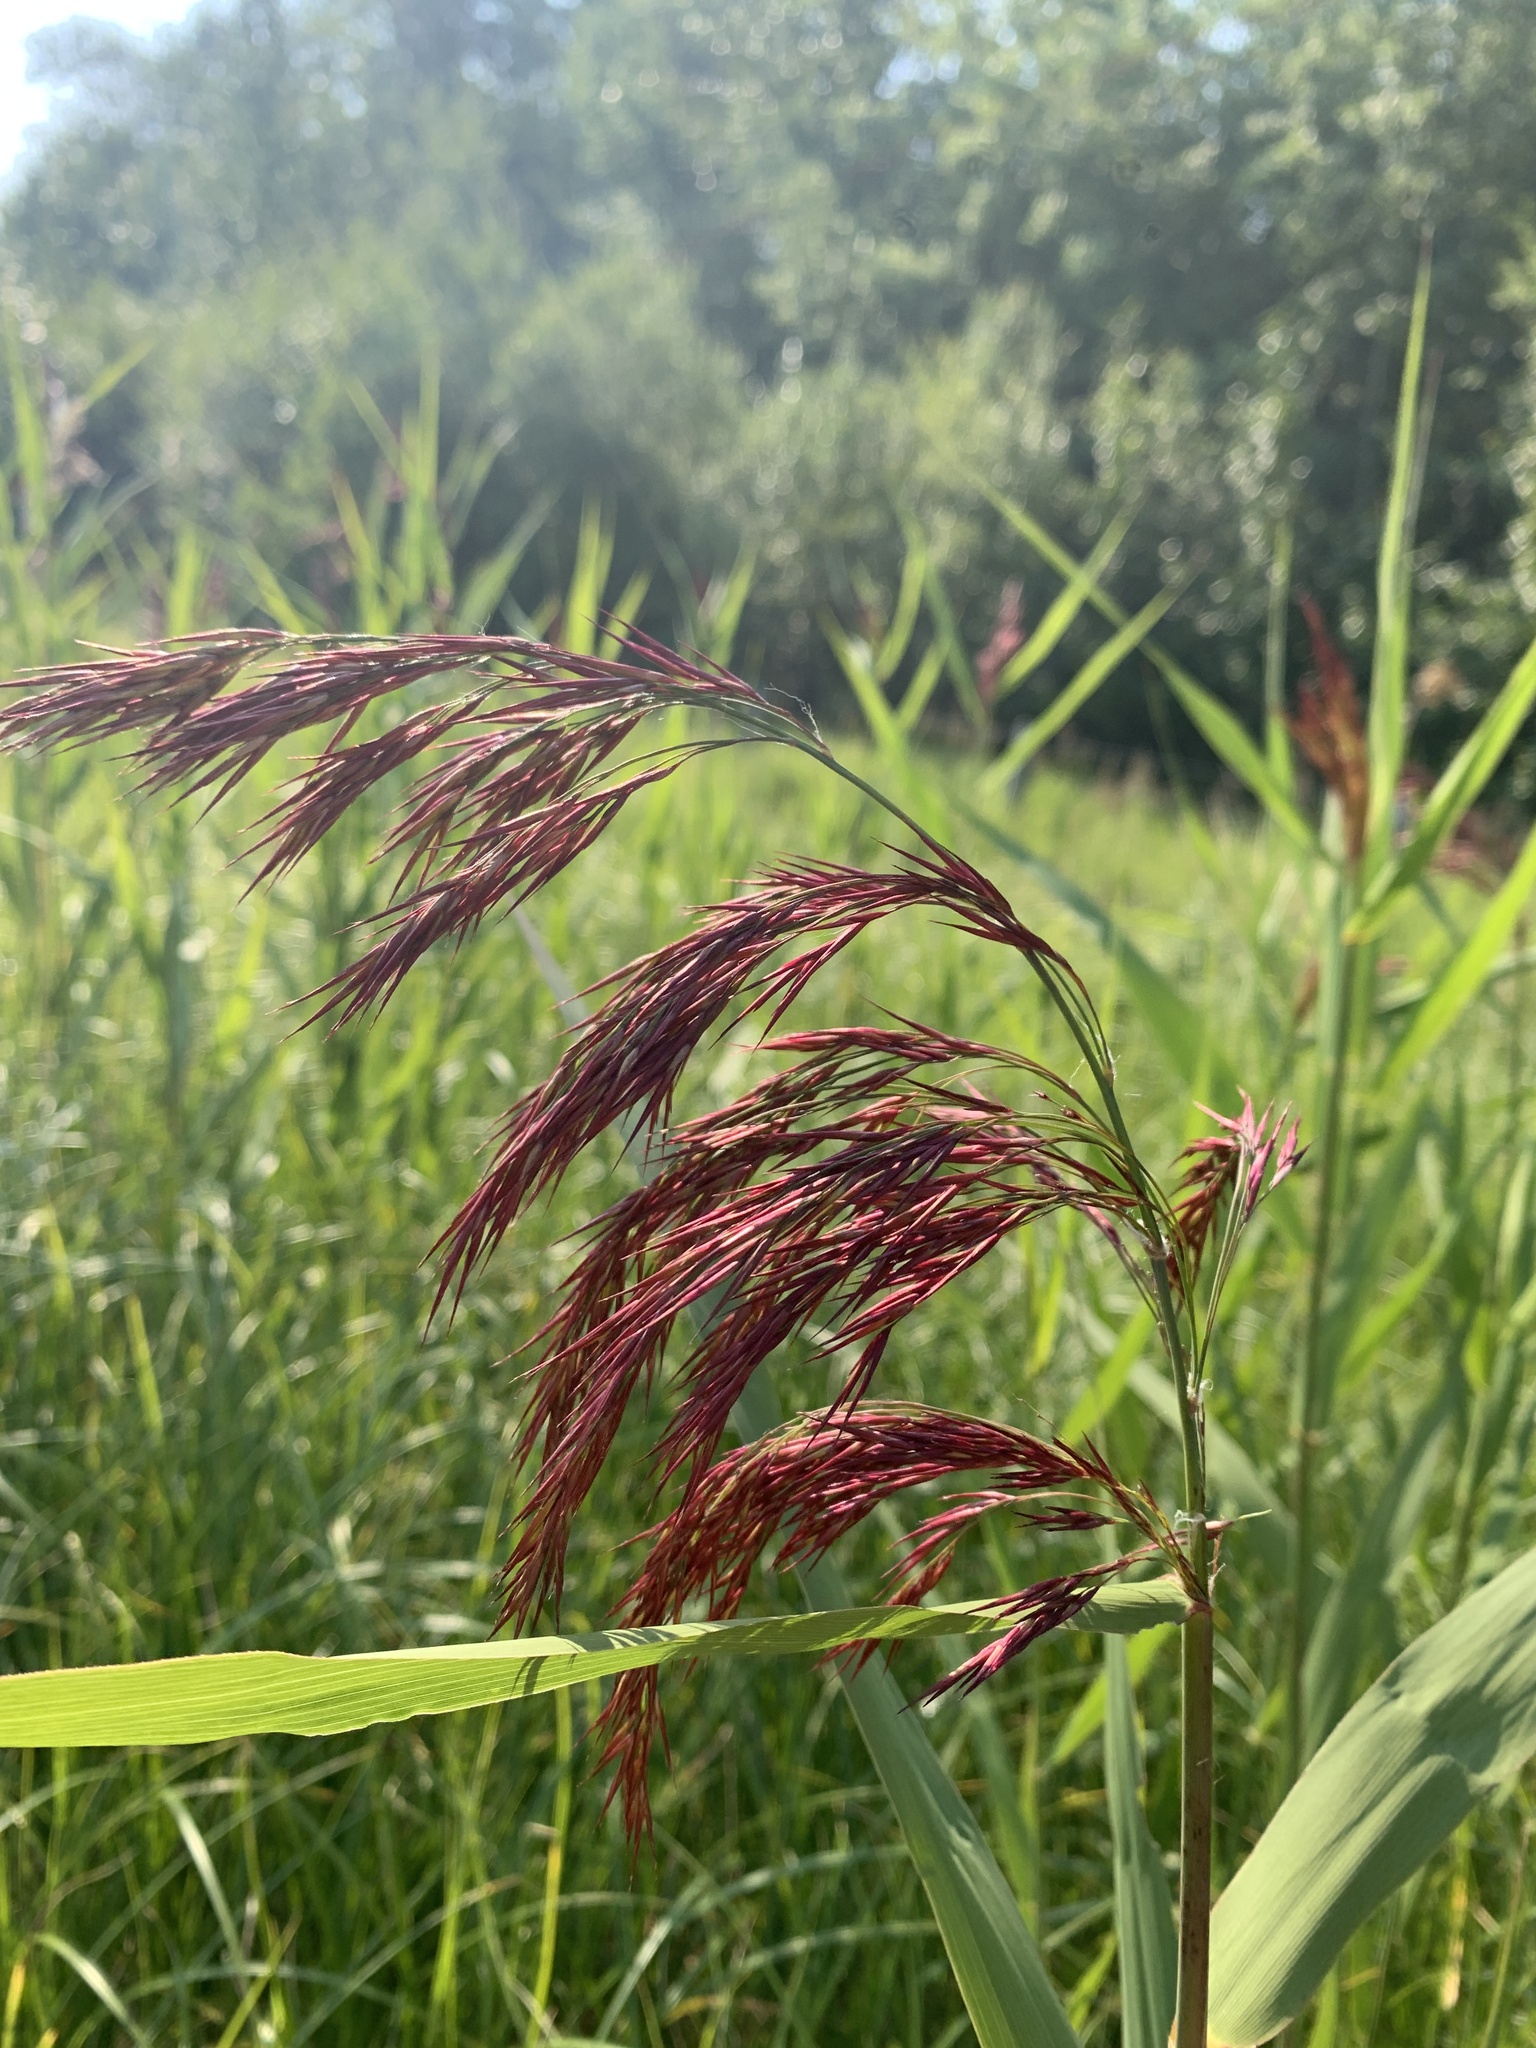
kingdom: Plantae
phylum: Tracheophyta
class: Liliopsida
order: Poales
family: Poaceae
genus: Phragmites
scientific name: Phragmites australis
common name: Common reed
